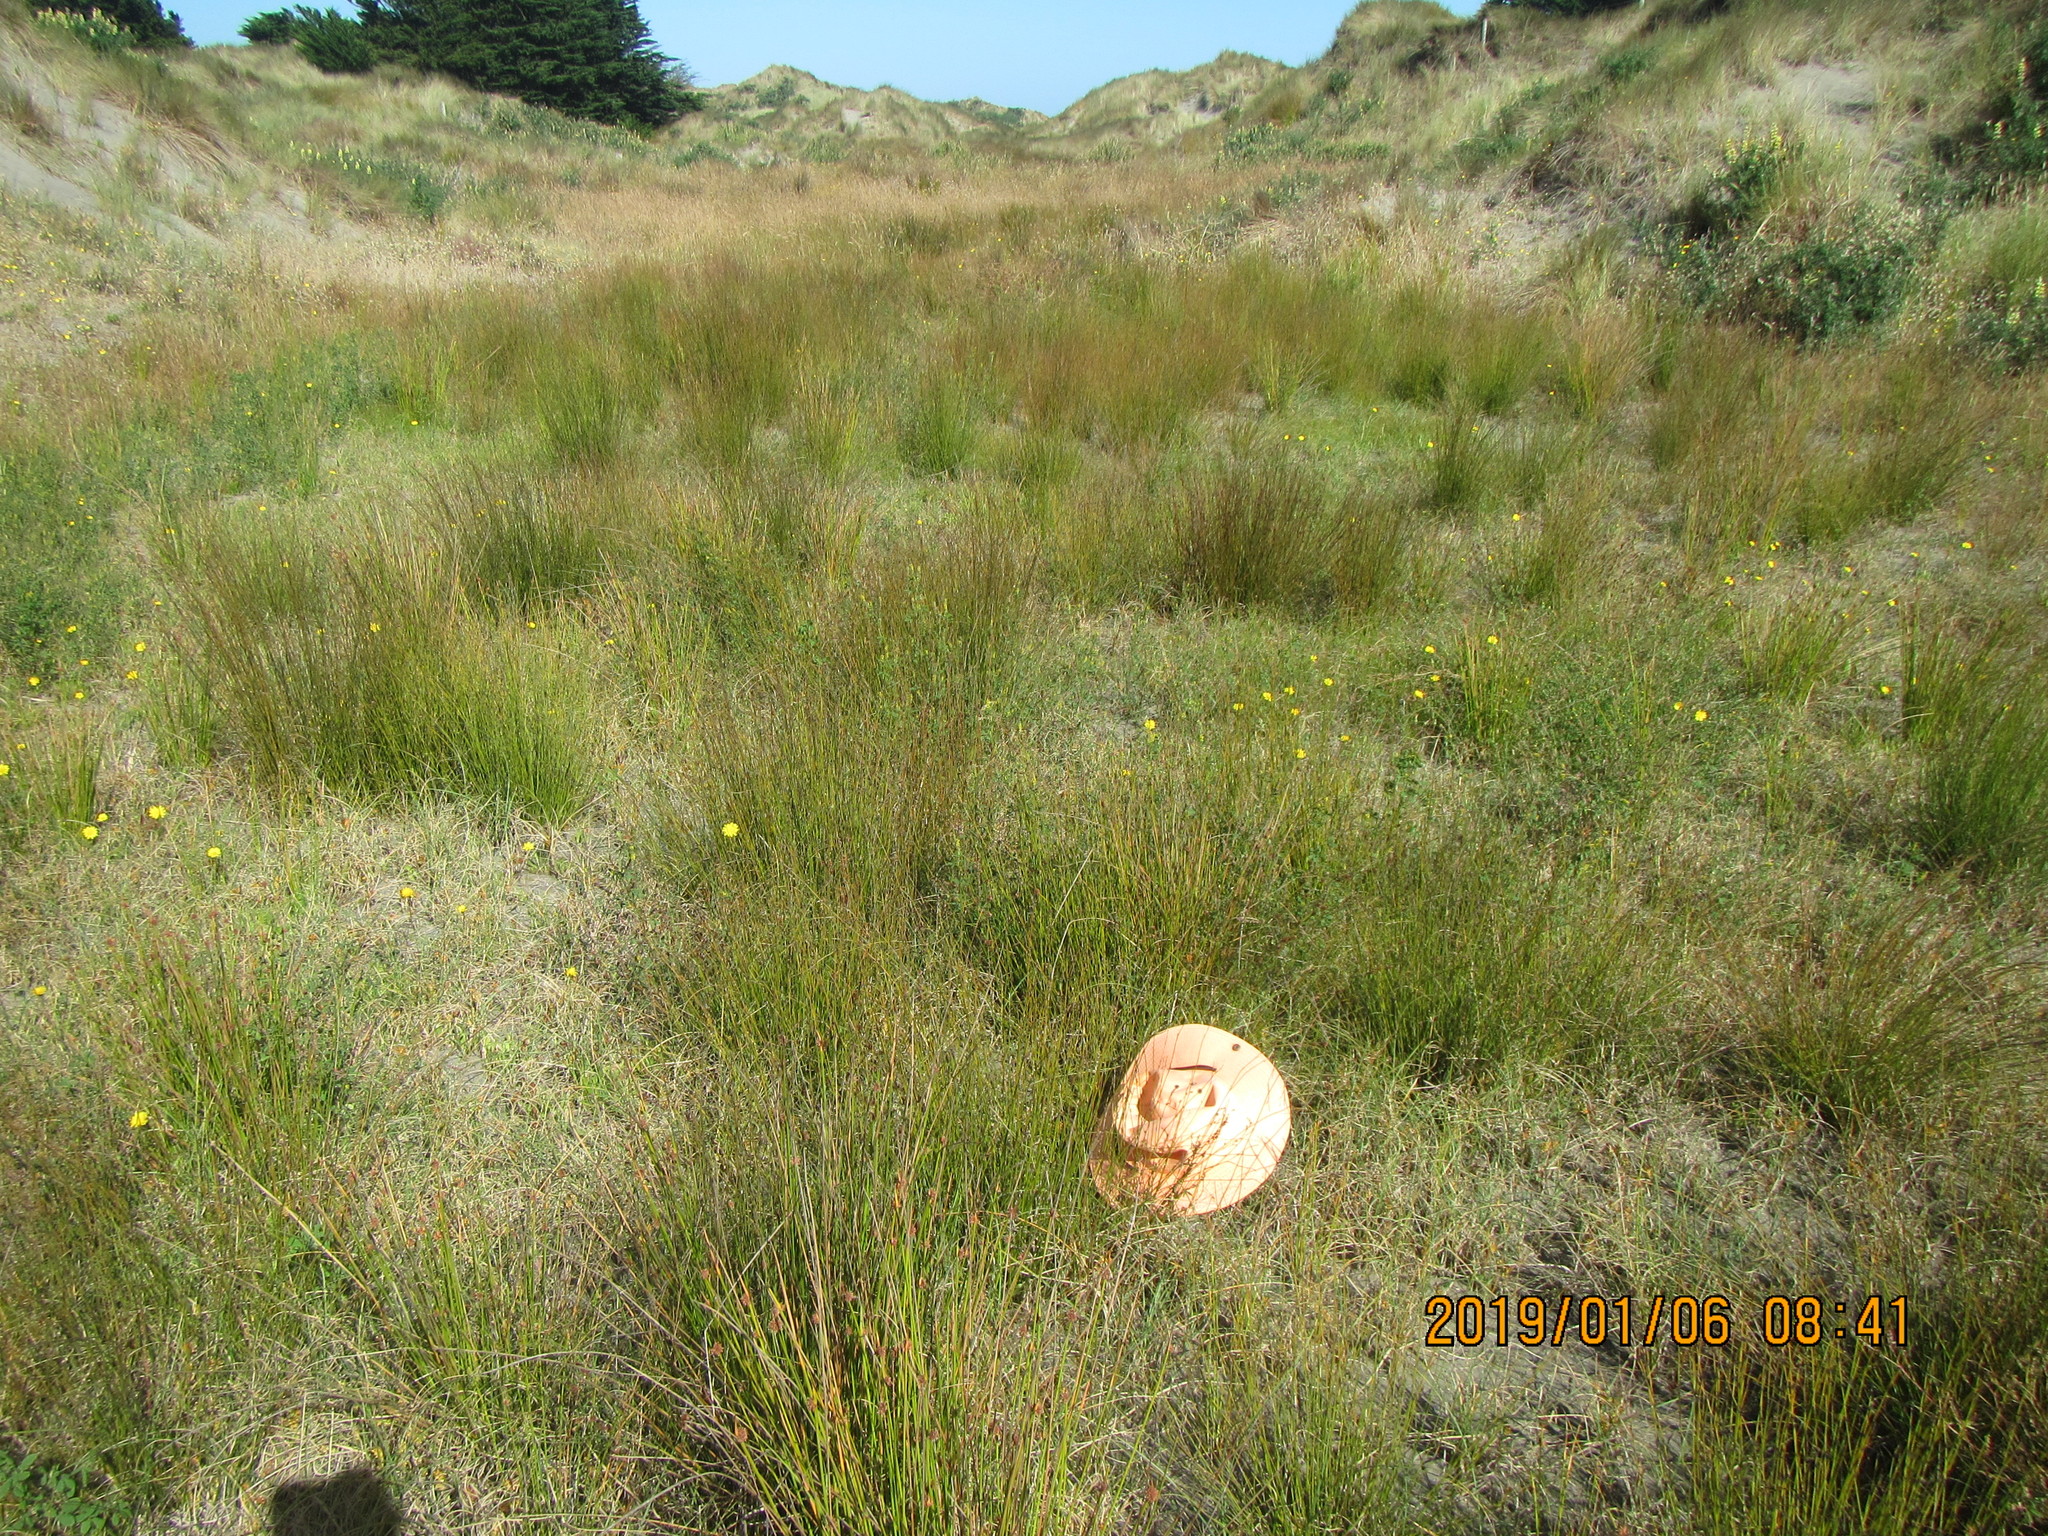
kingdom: Plantae
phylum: Tracheophyta
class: Magnoliopsida
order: Asterales
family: Goodeniaceae
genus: Goodenia
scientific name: Goodenia heenanii
